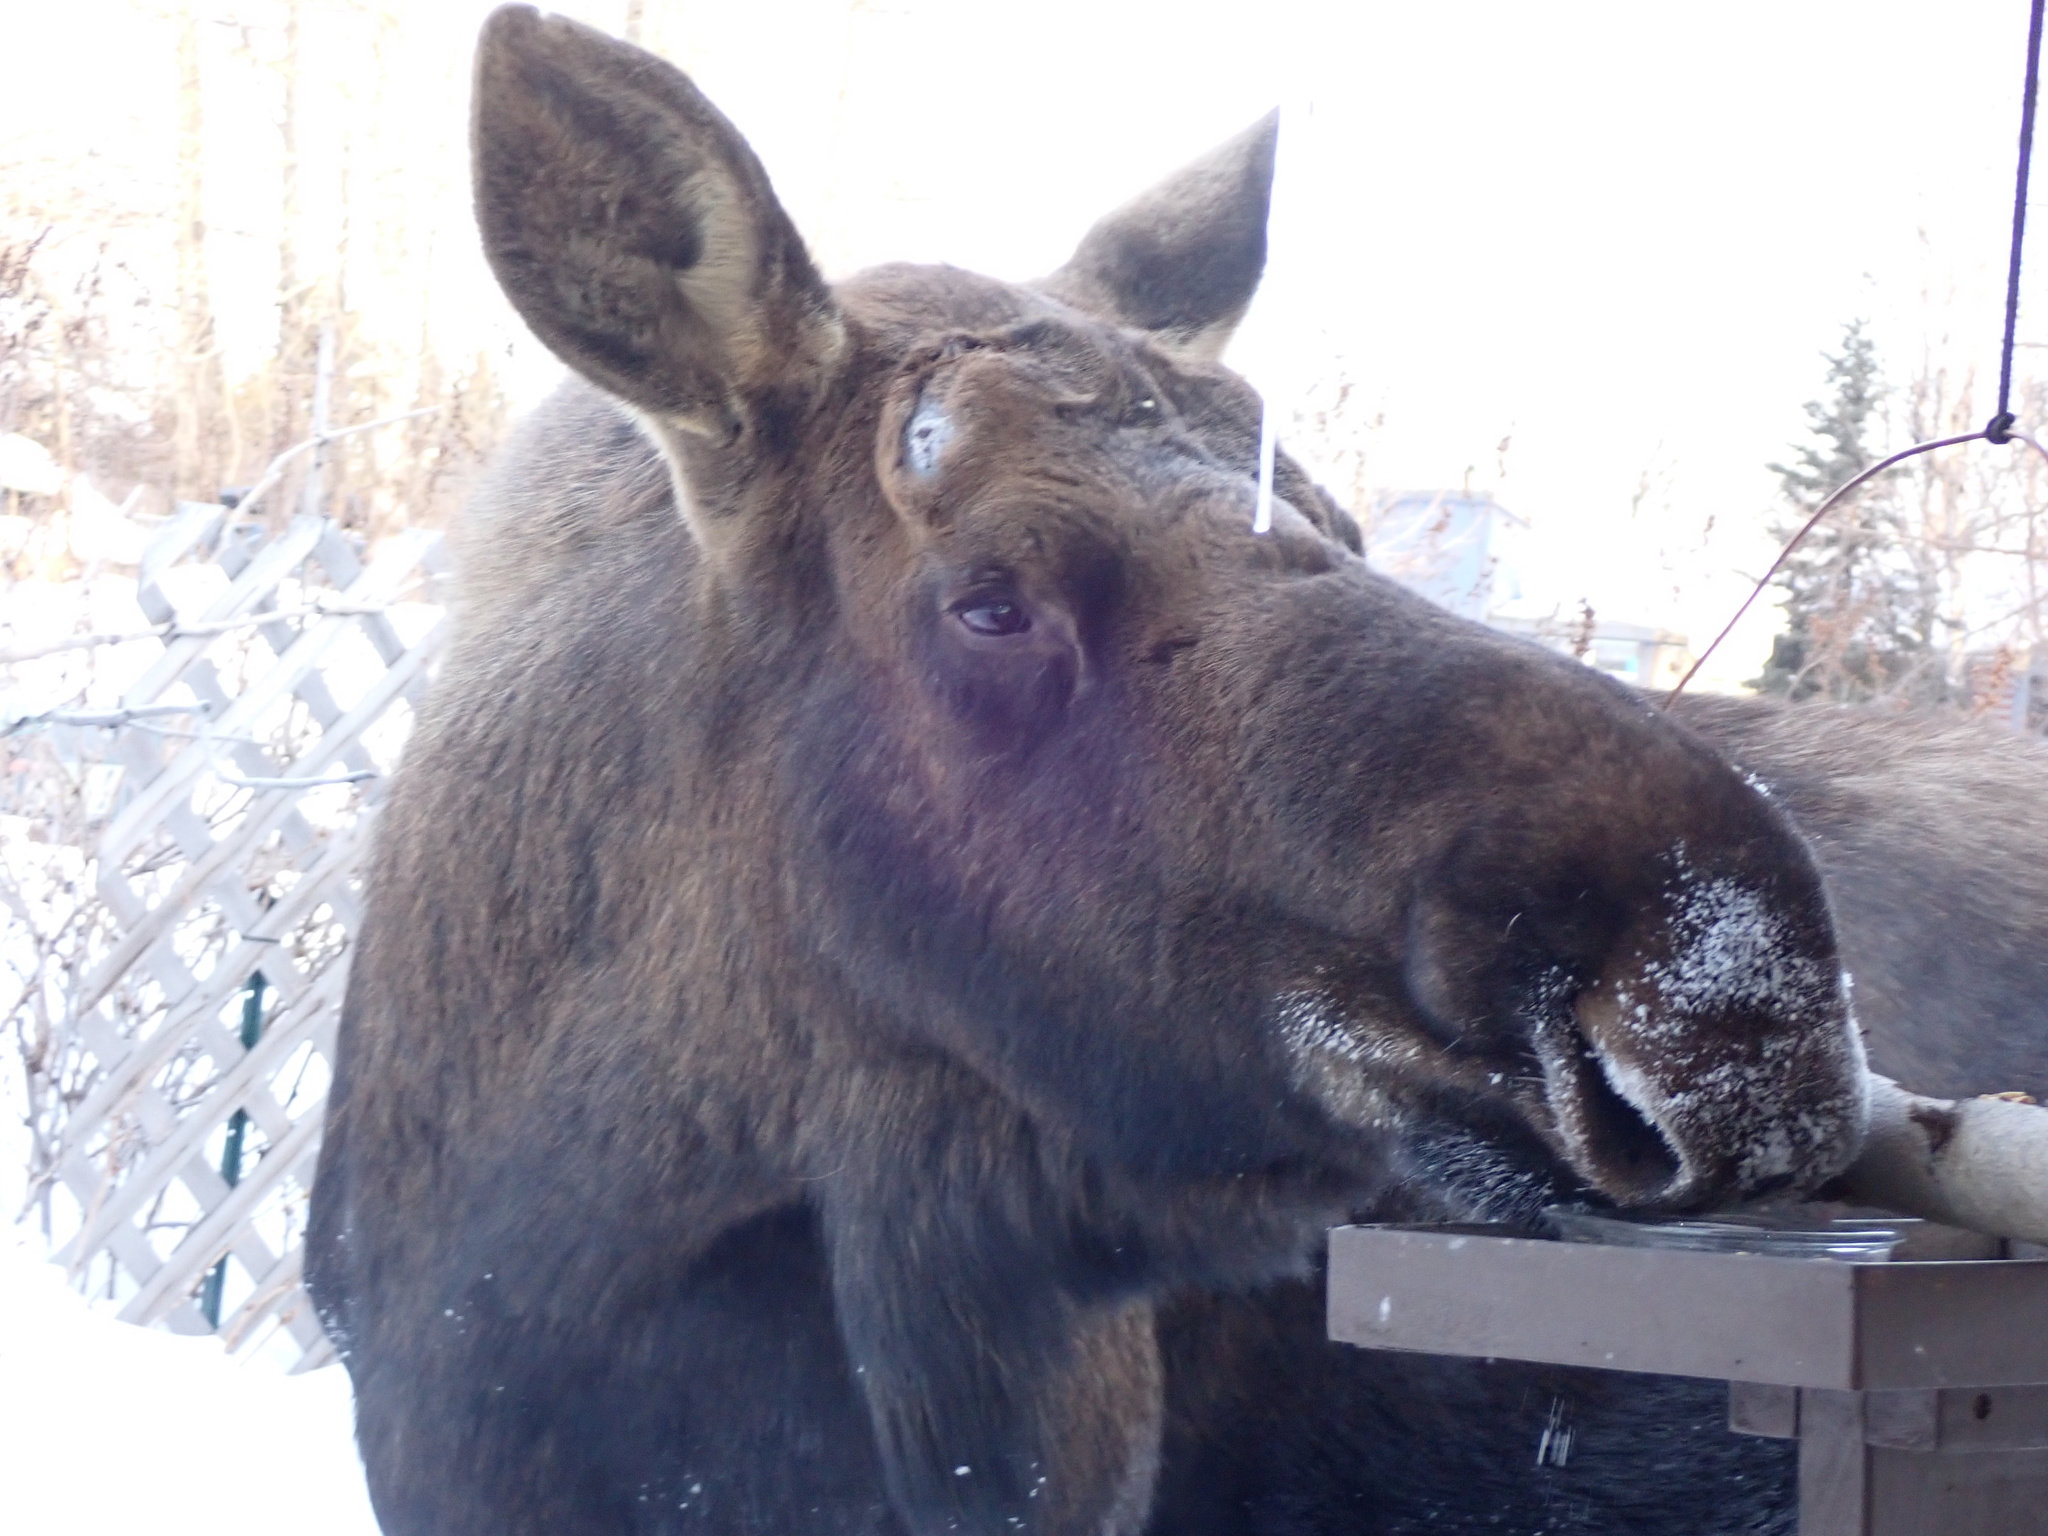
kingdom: Animalia
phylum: Chordata
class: Mammalia
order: Artiodactyla
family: Cervidae
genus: Alces
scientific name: Alces alces
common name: Moose
